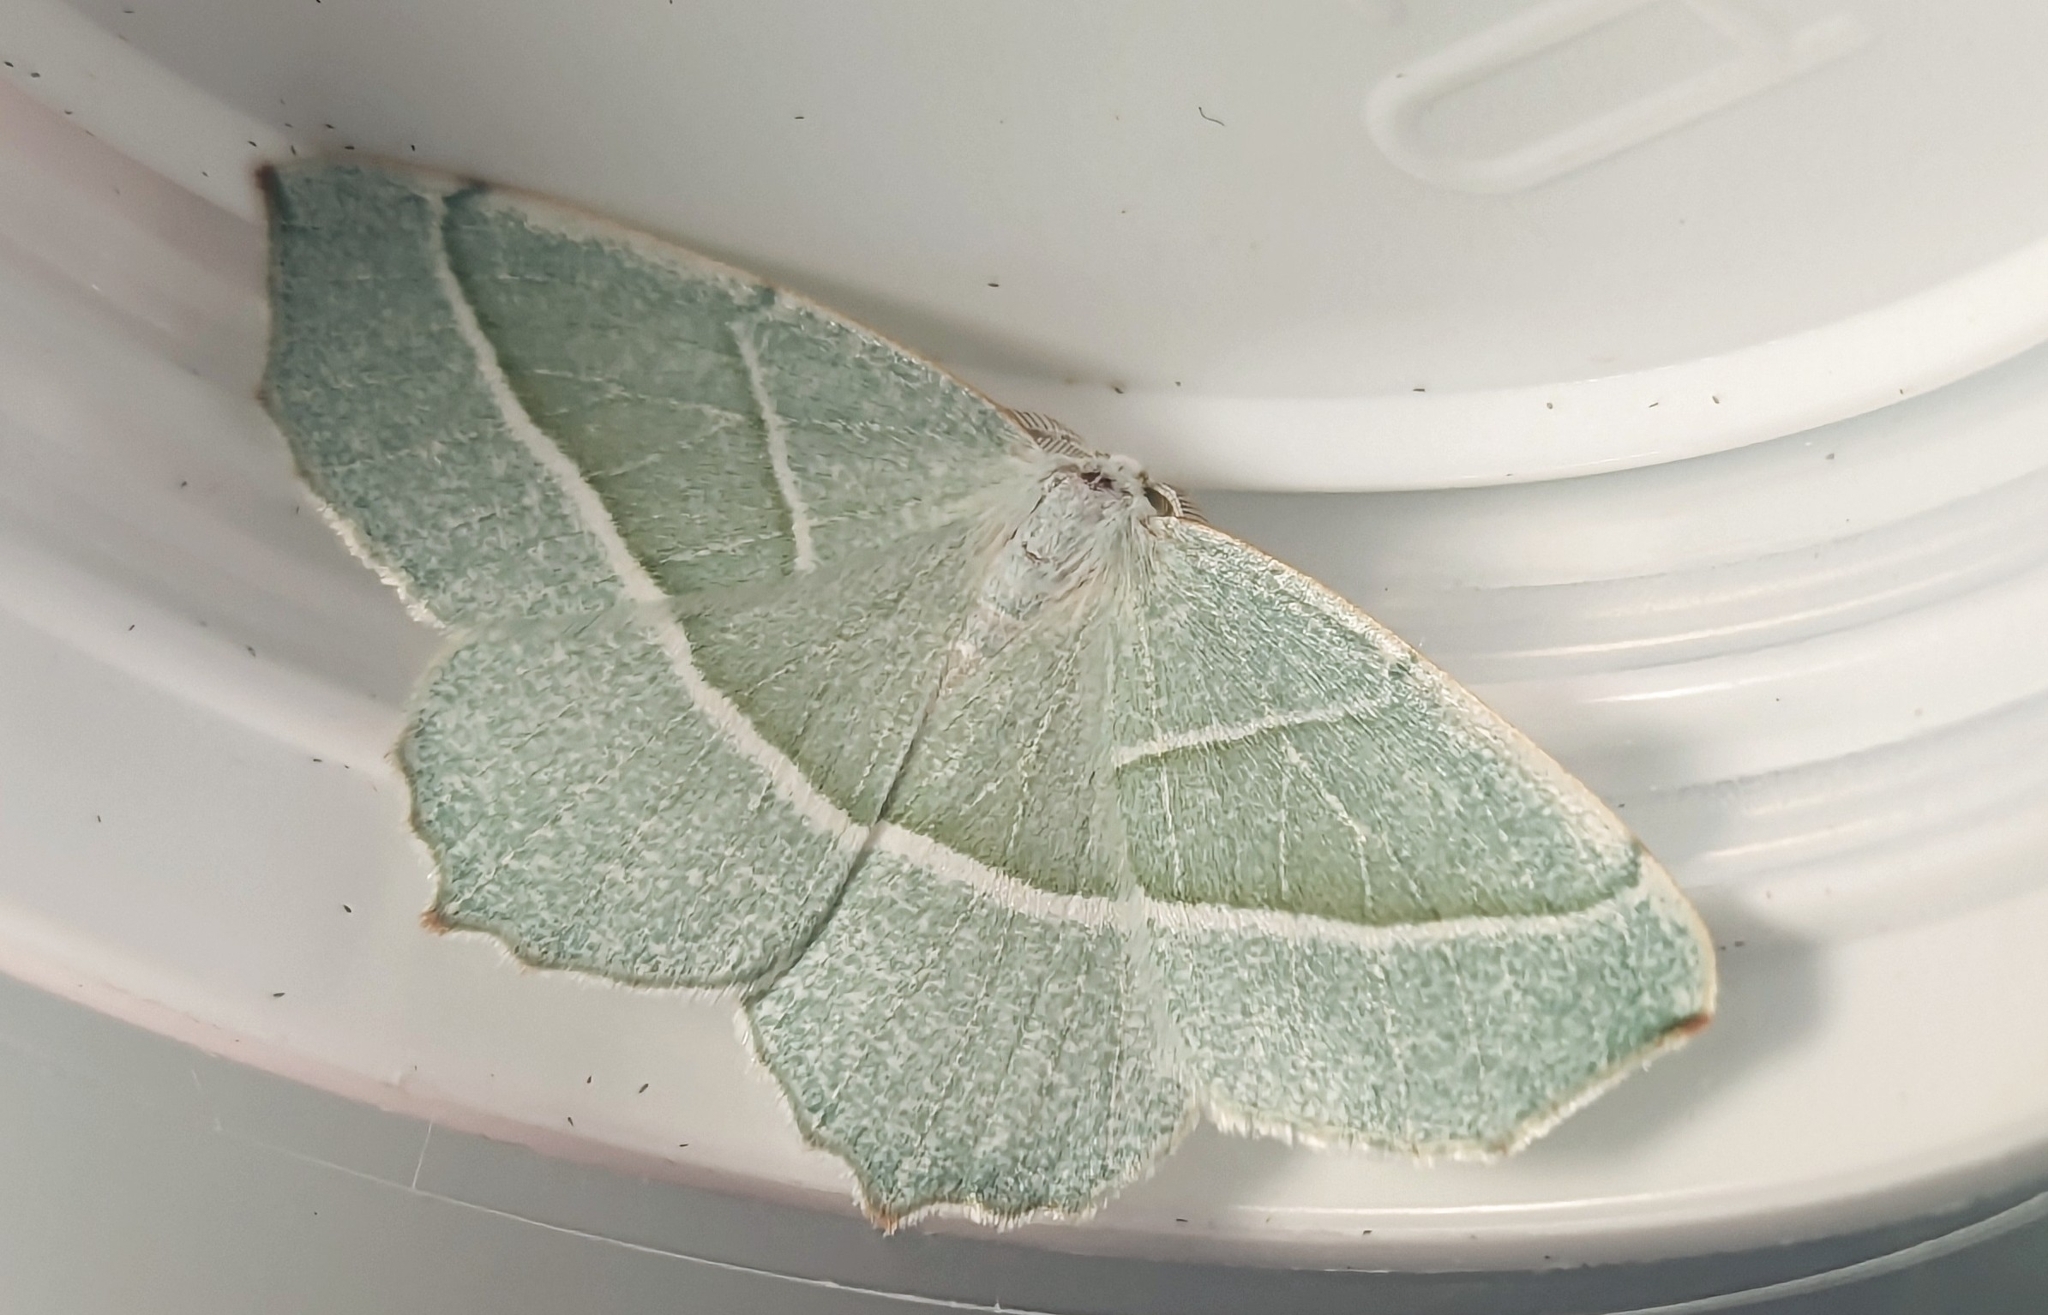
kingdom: Animalia
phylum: Arthropoda
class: Insecta
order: Lepidoptera
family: Geometridae
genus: Campaea
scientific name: Campaea margaritaria
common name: Light emerald
